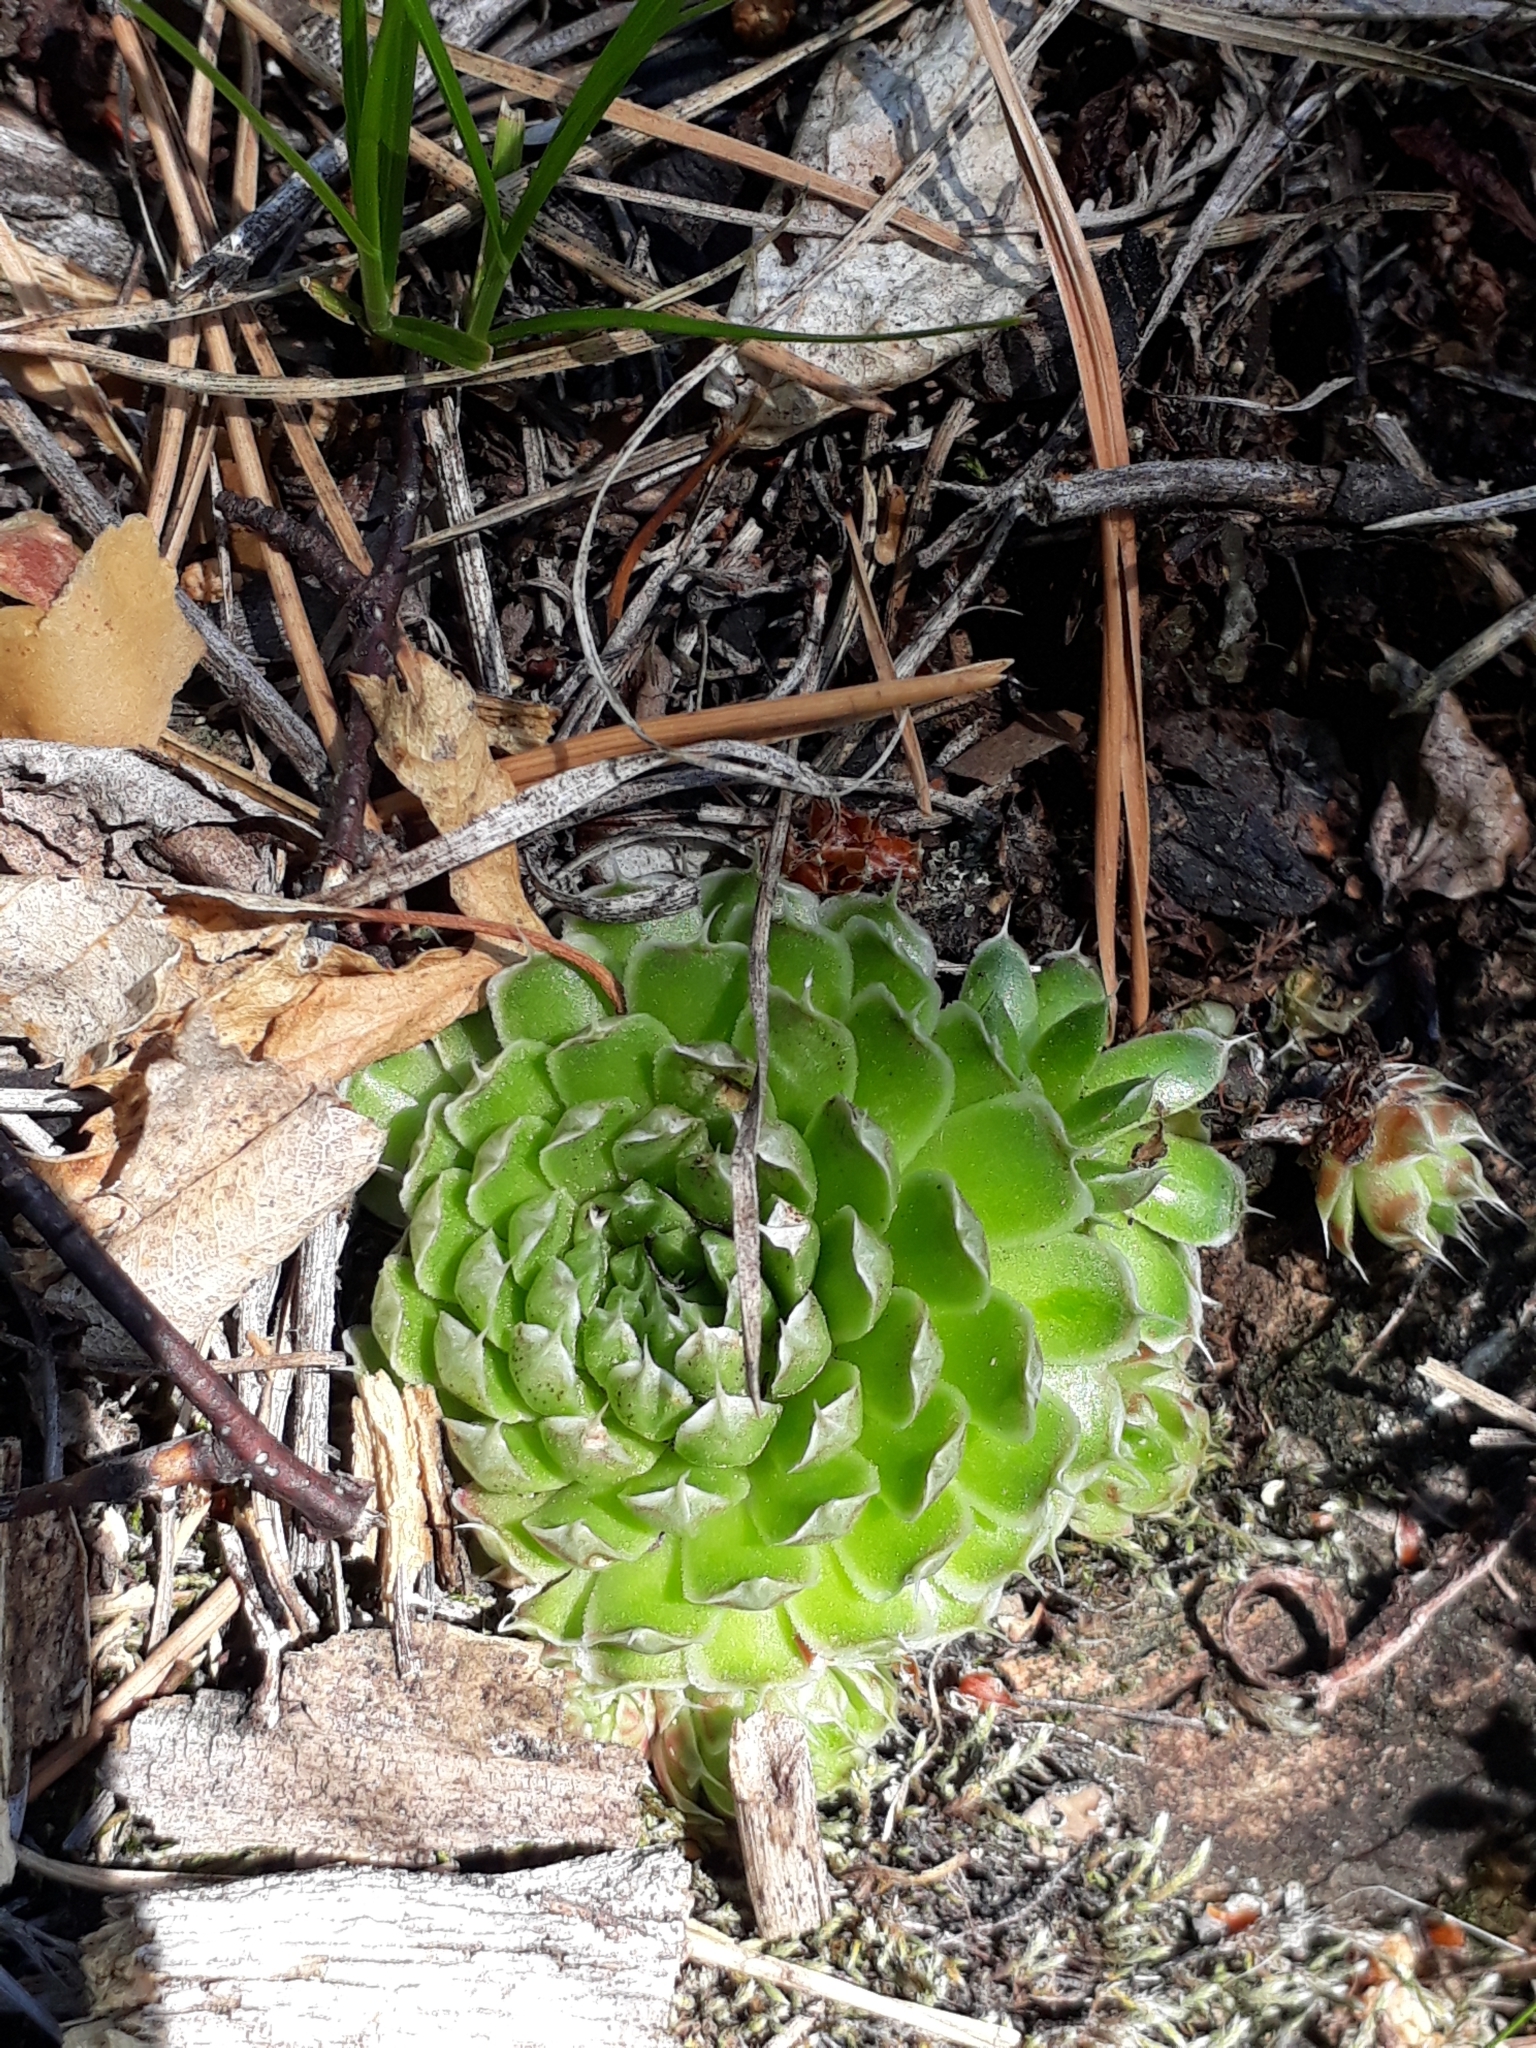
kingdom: Plantae
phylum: Tracheophyta
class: Magnoliopsida
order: Saxifragales
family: Crassulaceae
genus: Orostachys
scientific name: Orostachys spinosa
